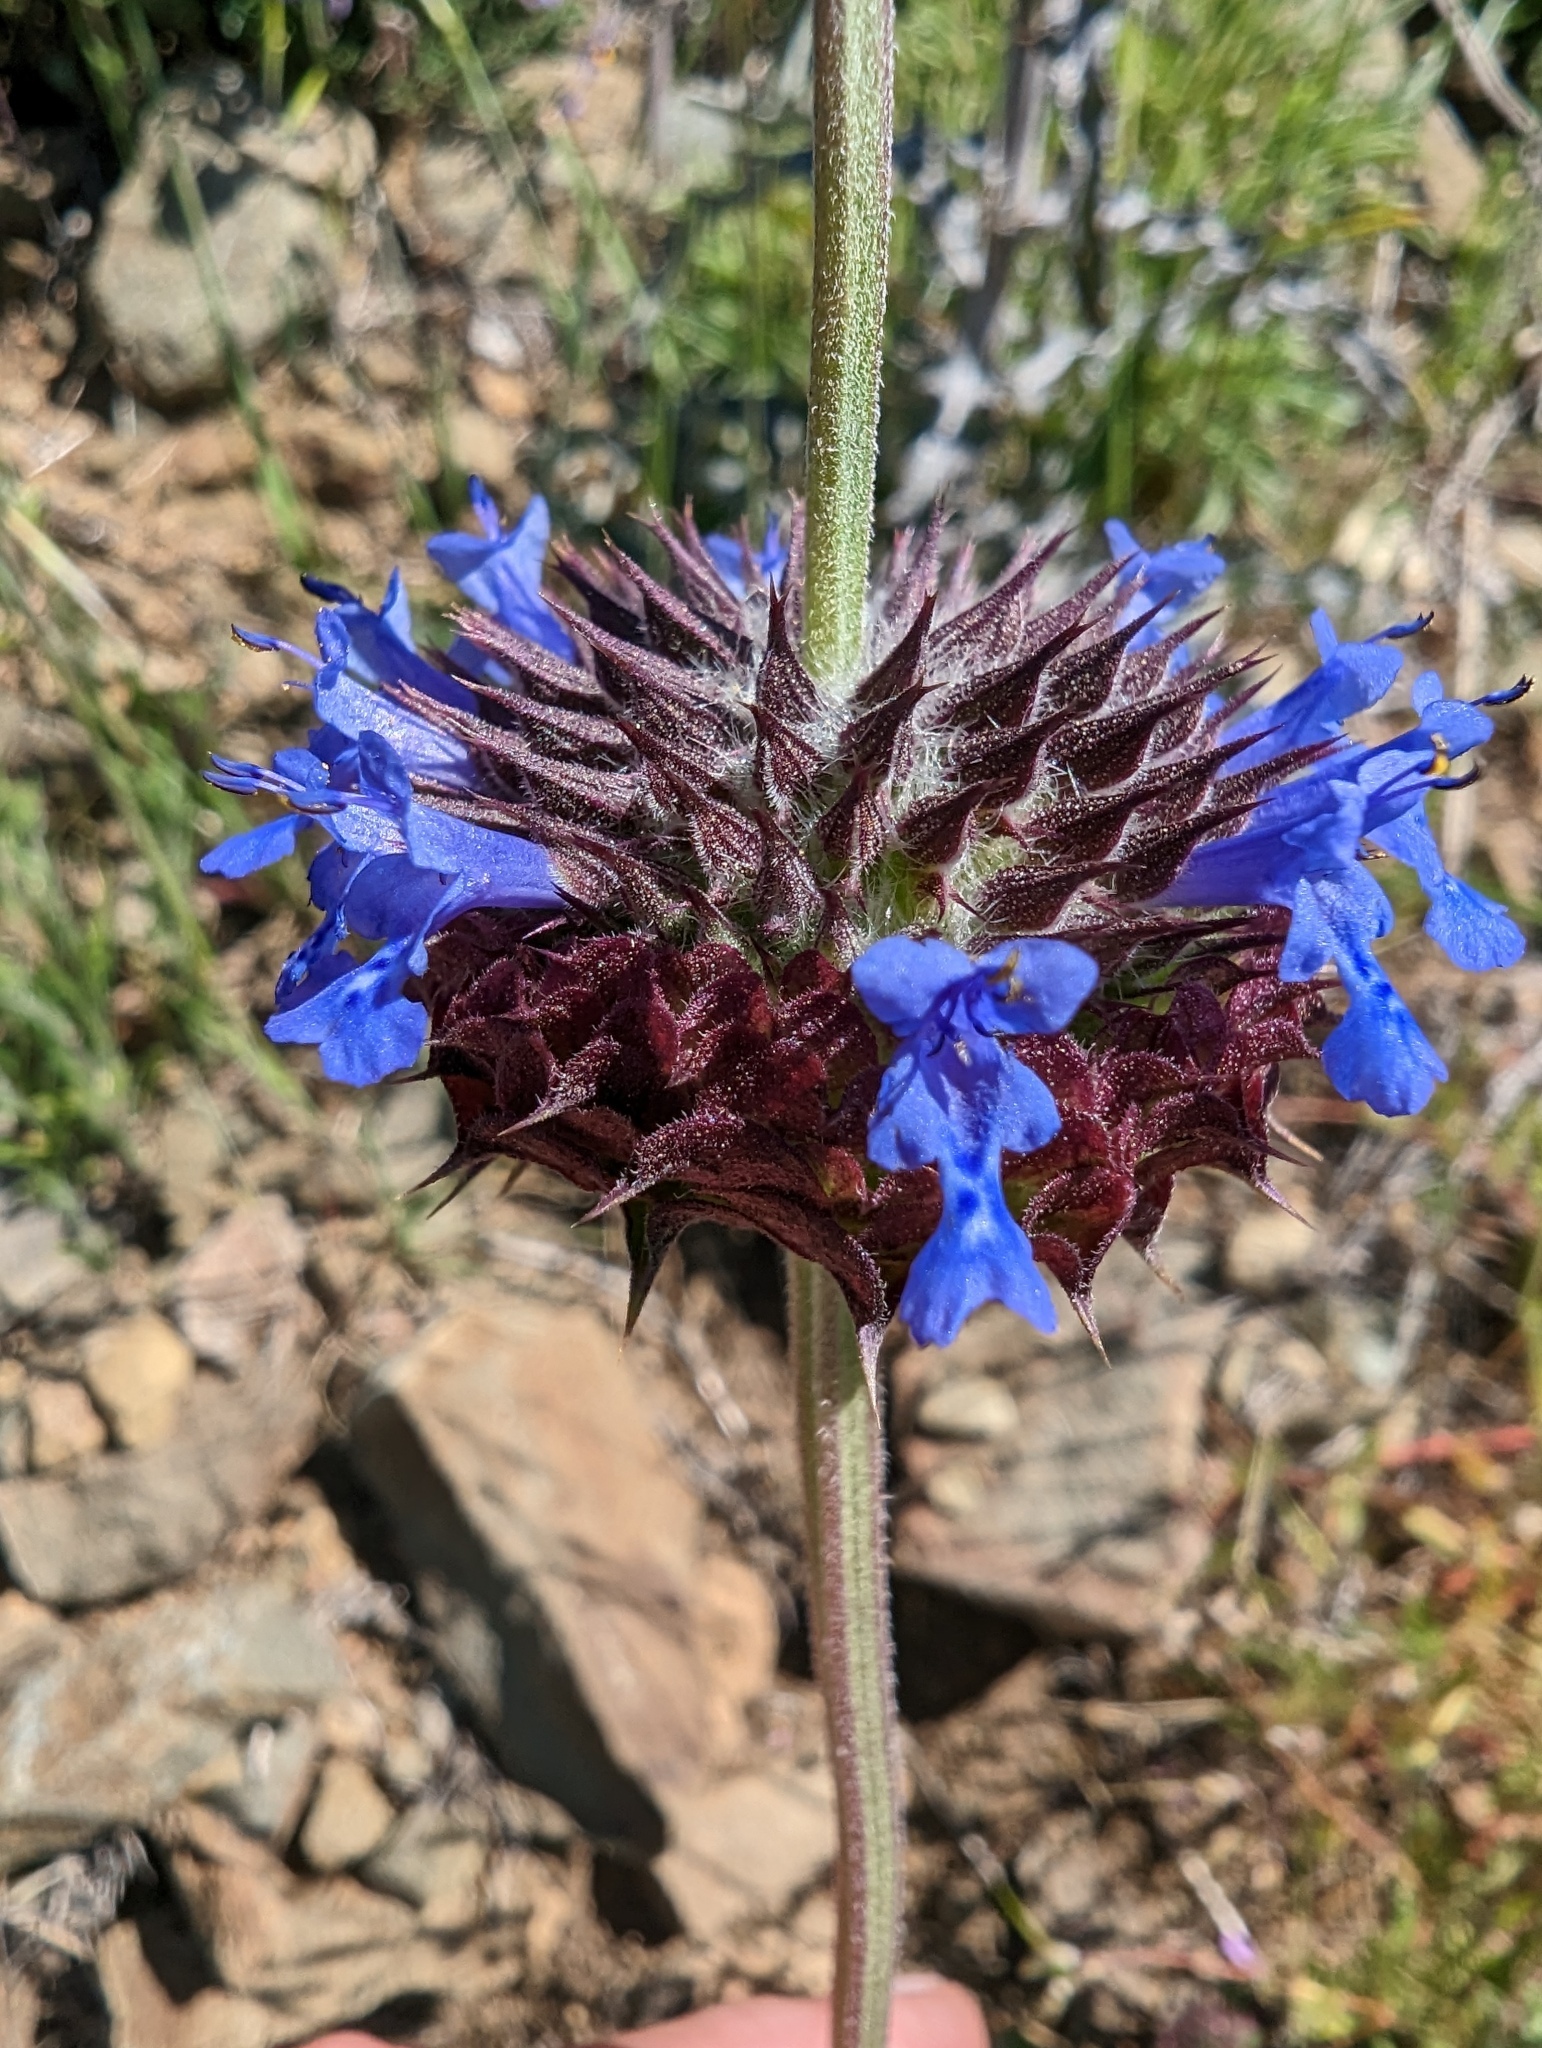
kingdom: Plantae
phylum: Tracheophyta
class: Magnoliopsida
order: Lamiales
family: Lamiaceae
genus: Salvia
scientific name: Salvia columbariae
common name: Chia
